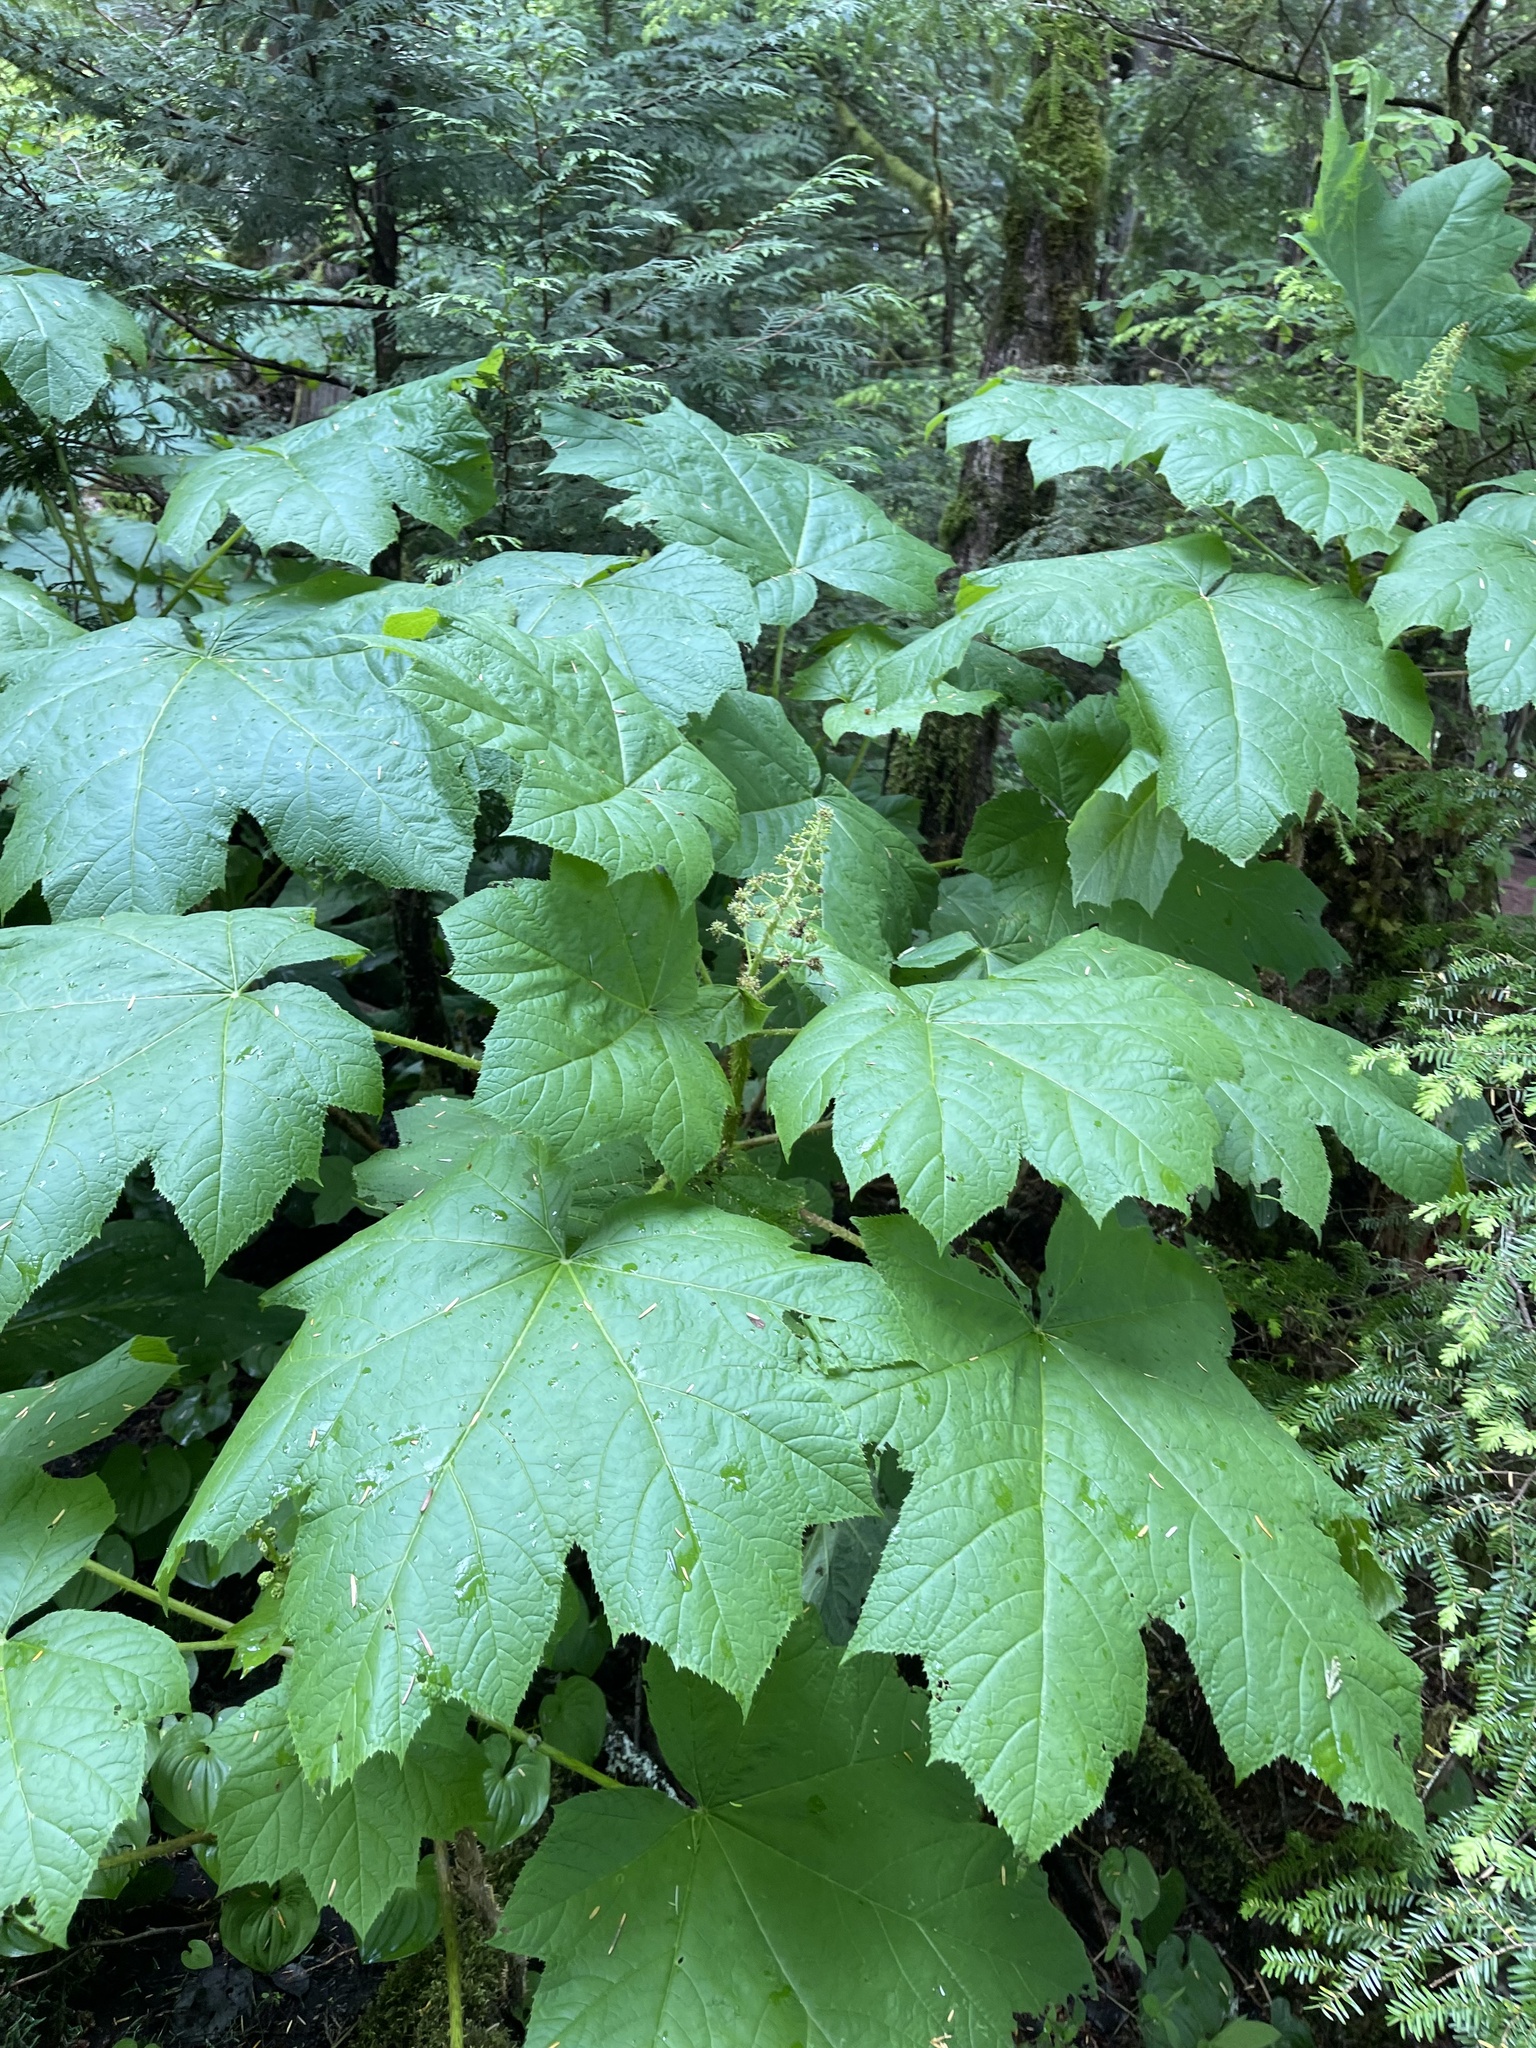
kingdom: Plantae
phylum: Tracheophyta
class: Magnoliopsida
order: Apiales
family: Araliaceae
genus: Oplopanax
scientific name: Oplopanax horridus
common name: Devil's walking-stick
